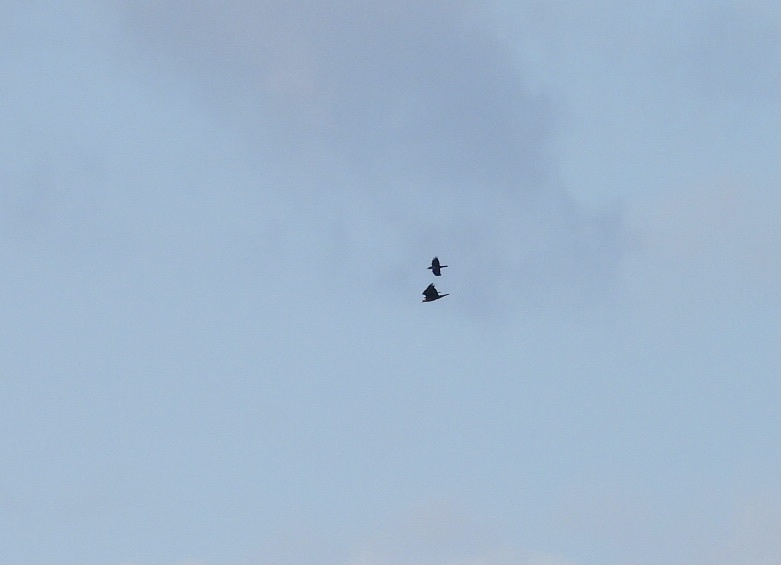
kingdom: Animalia
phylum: Chordata
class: Aves
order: Accipitriformes
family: Accipitridae
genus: Aquila
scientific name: Aquila chrysaetos
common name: Golden eagle
